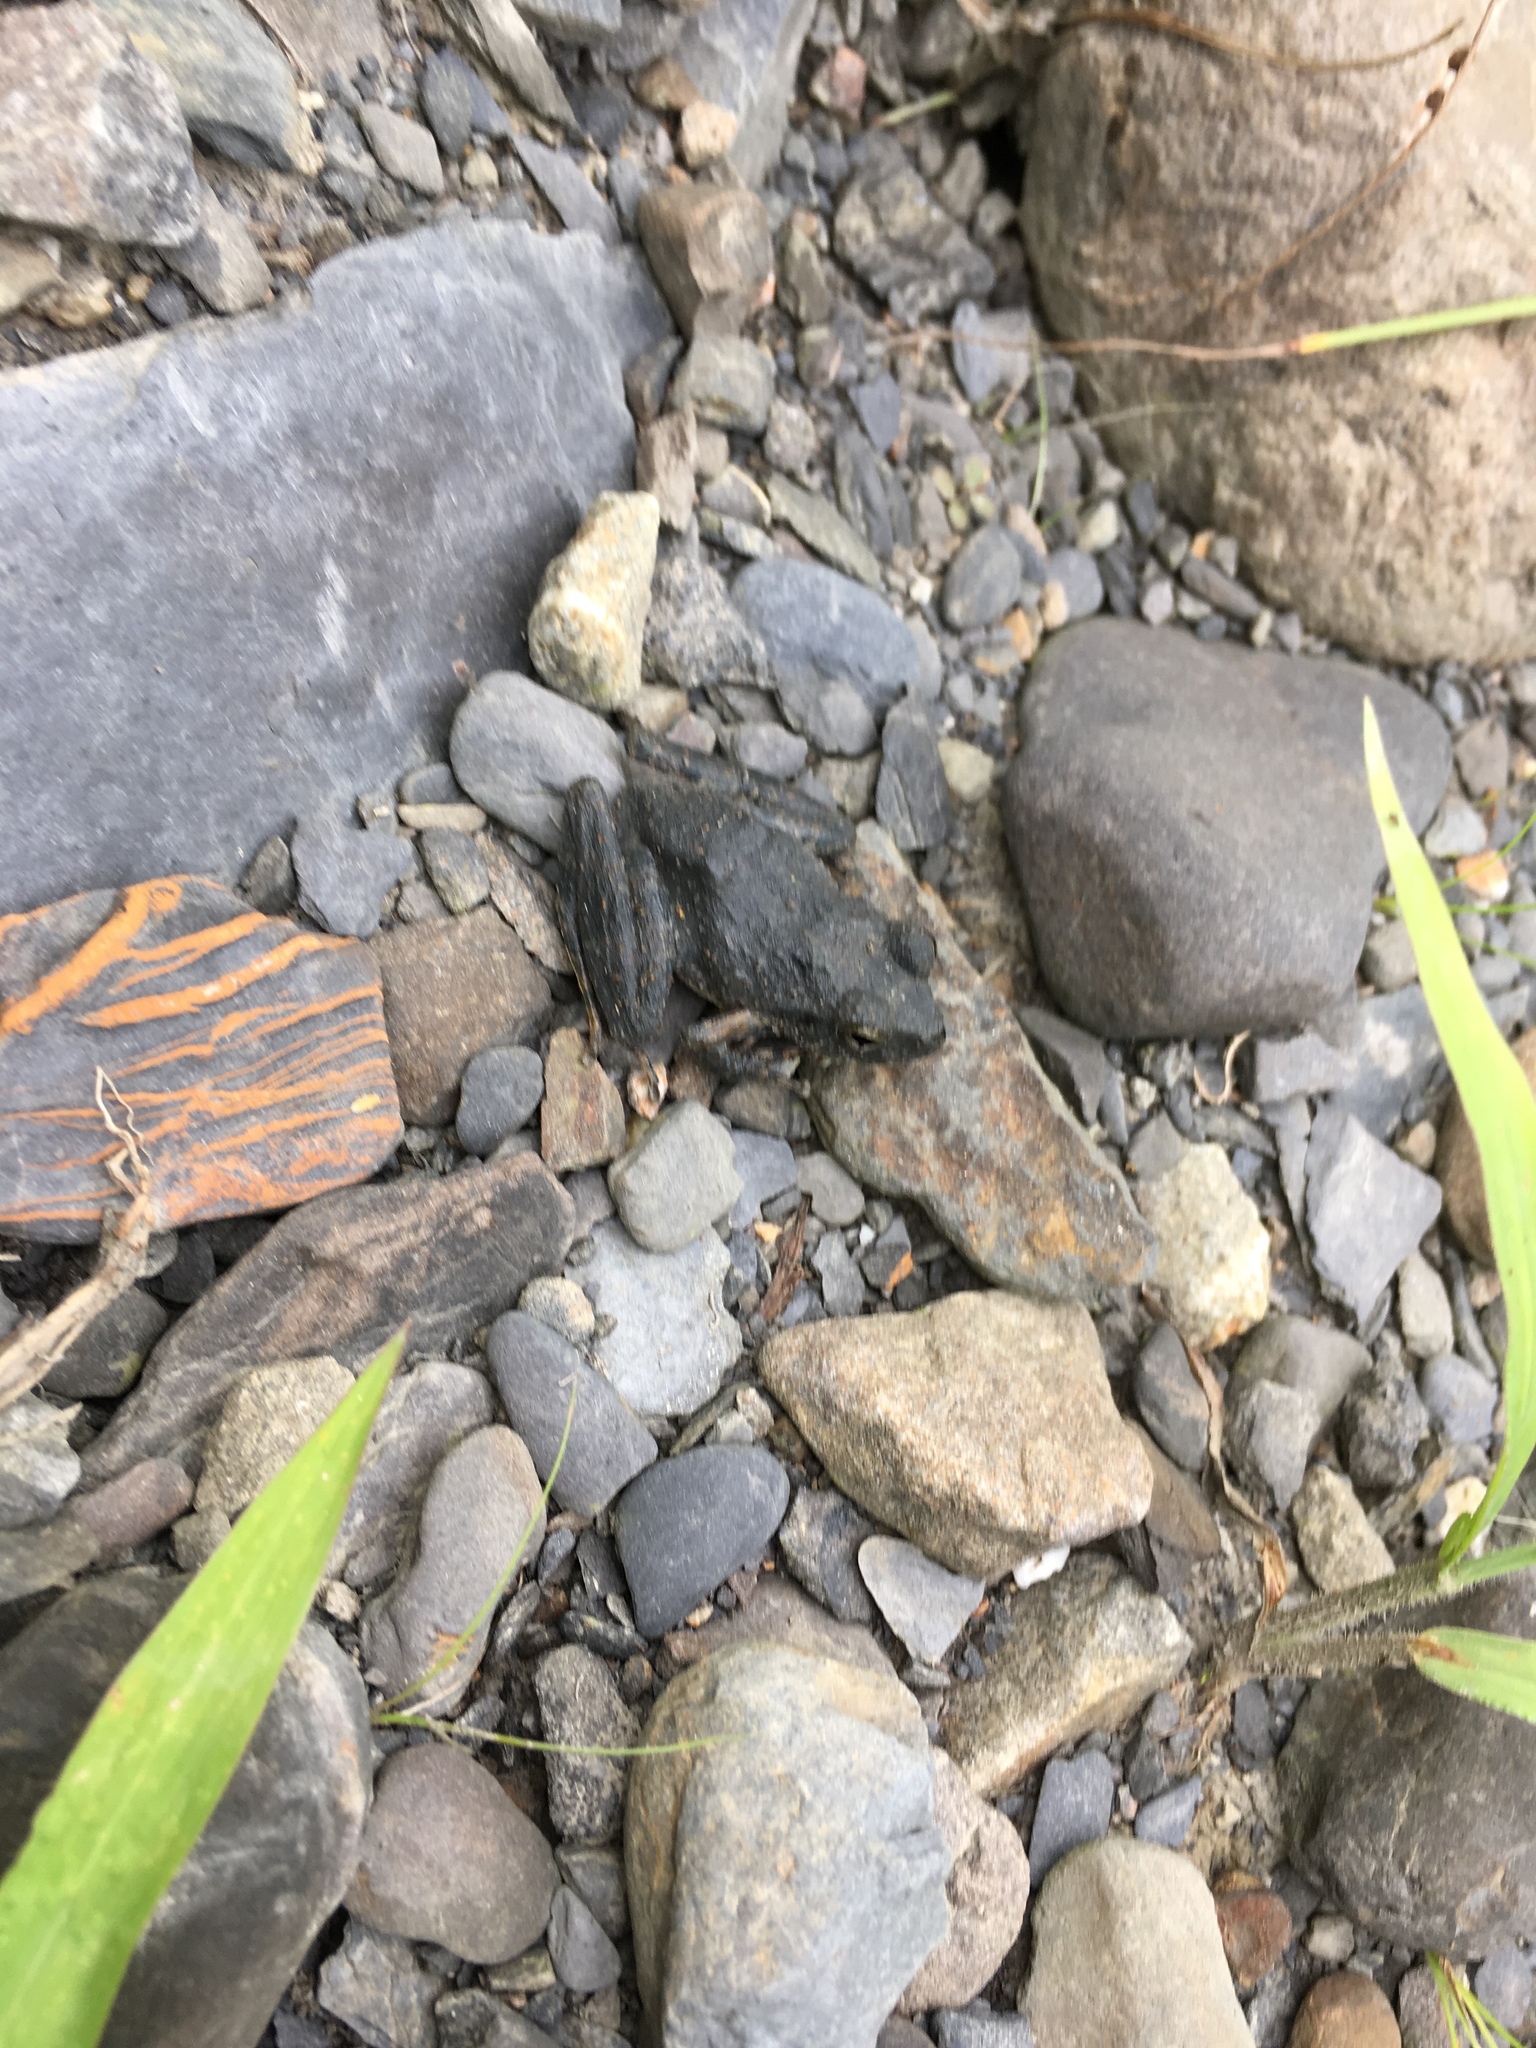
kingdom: Animalia
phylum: Chordata
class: Amphibia
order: Anura
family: Rhacophoridae
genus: Buergeria
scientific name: Buergeria otai
